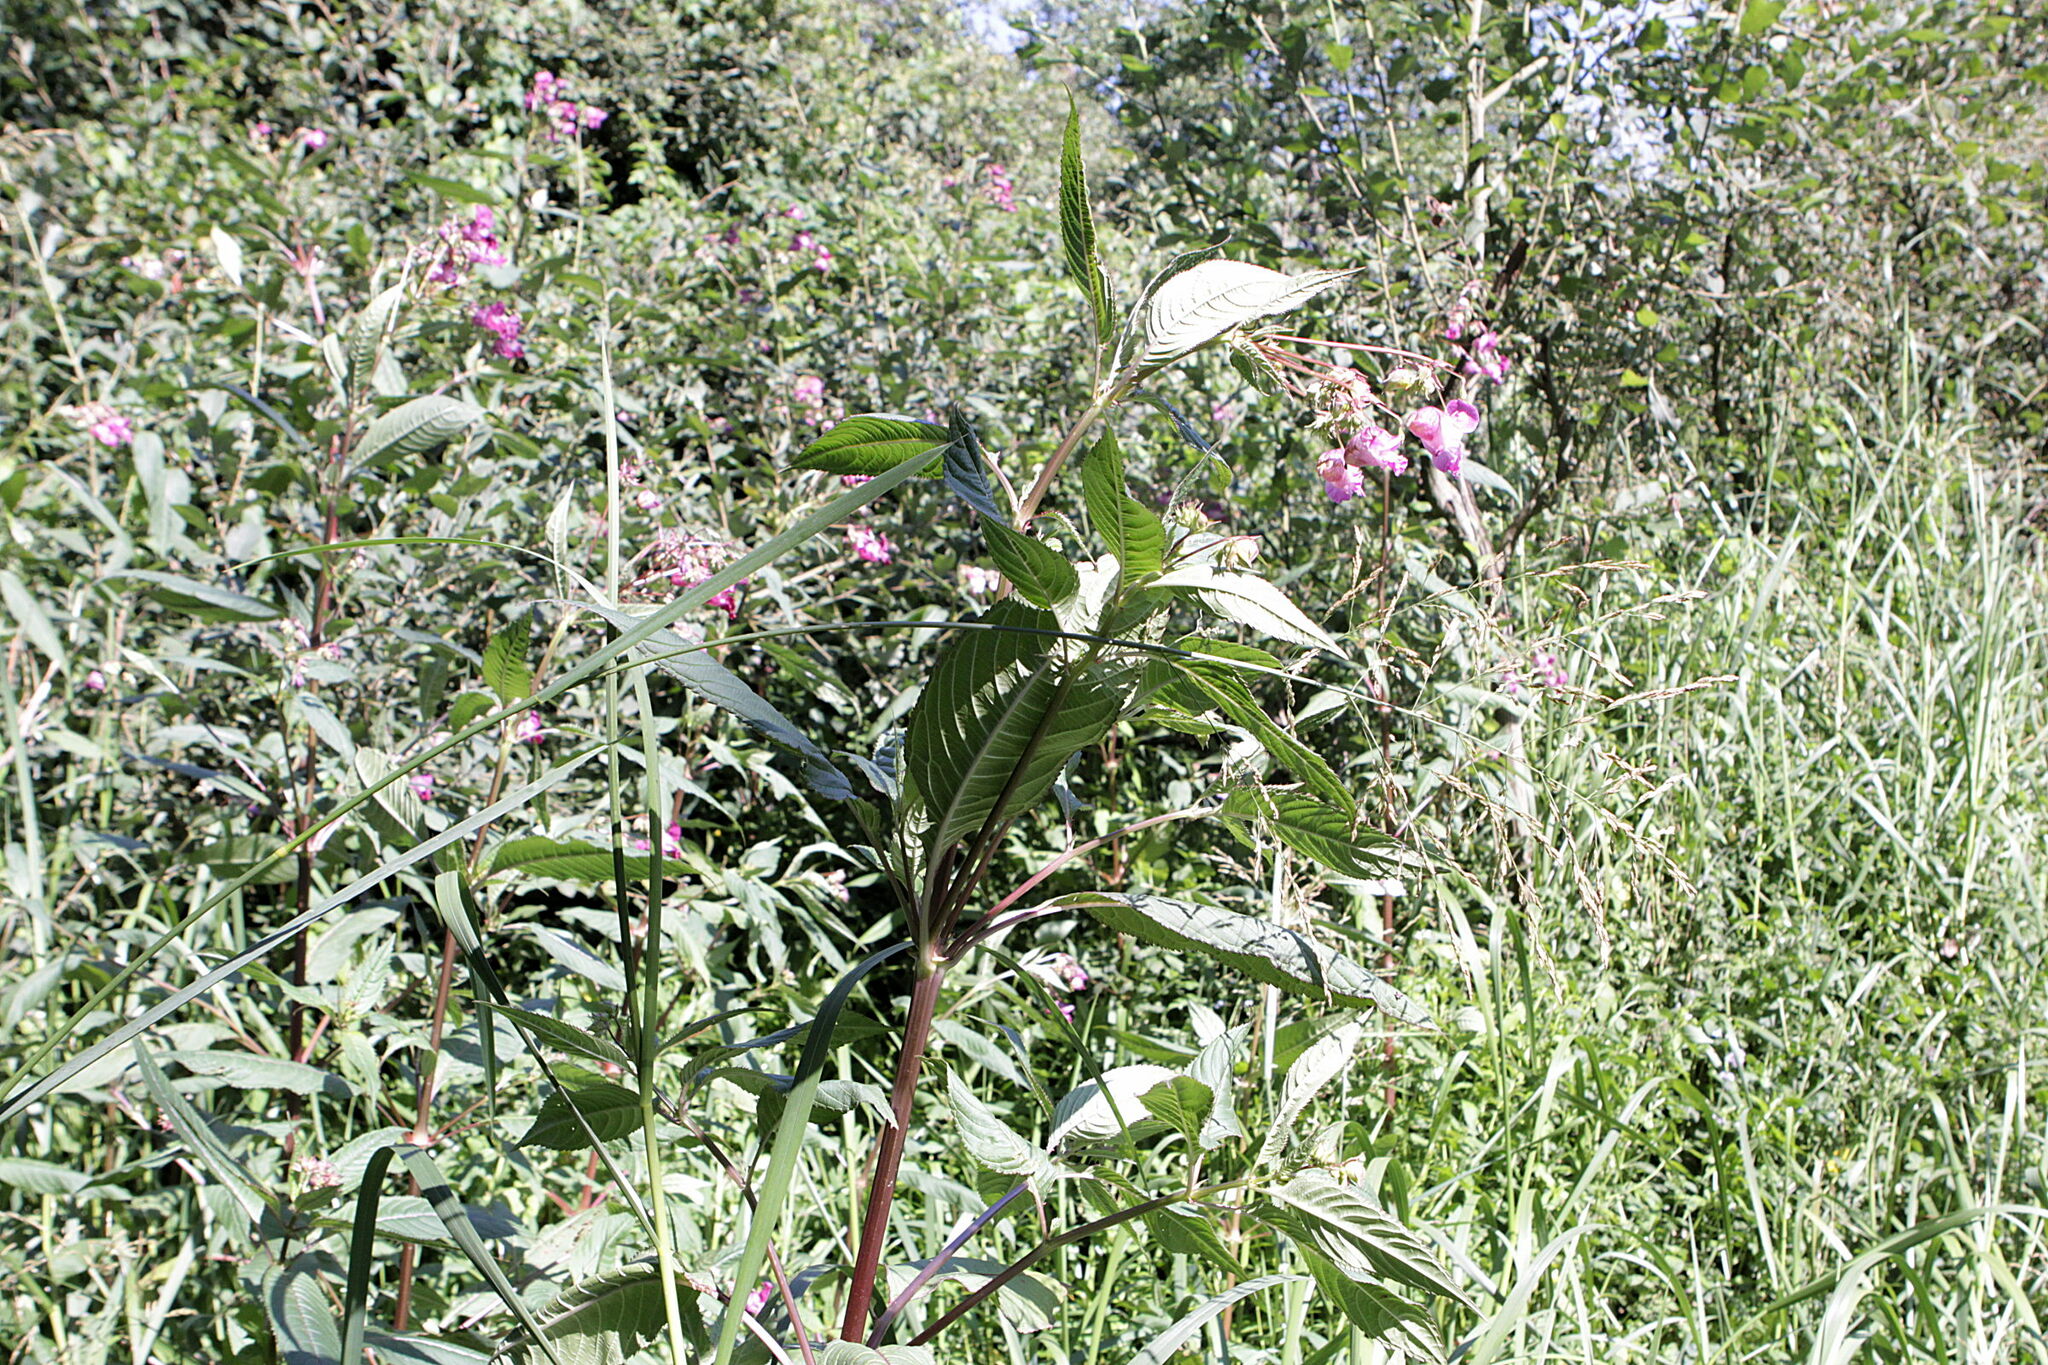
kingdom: Plantae
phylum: Tracheophyta
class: Magnoliopsida
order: Ericales
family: Balsaminaceae
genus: Impatiens
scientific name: Impatiens glandulifera
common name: Himalayan balsam
